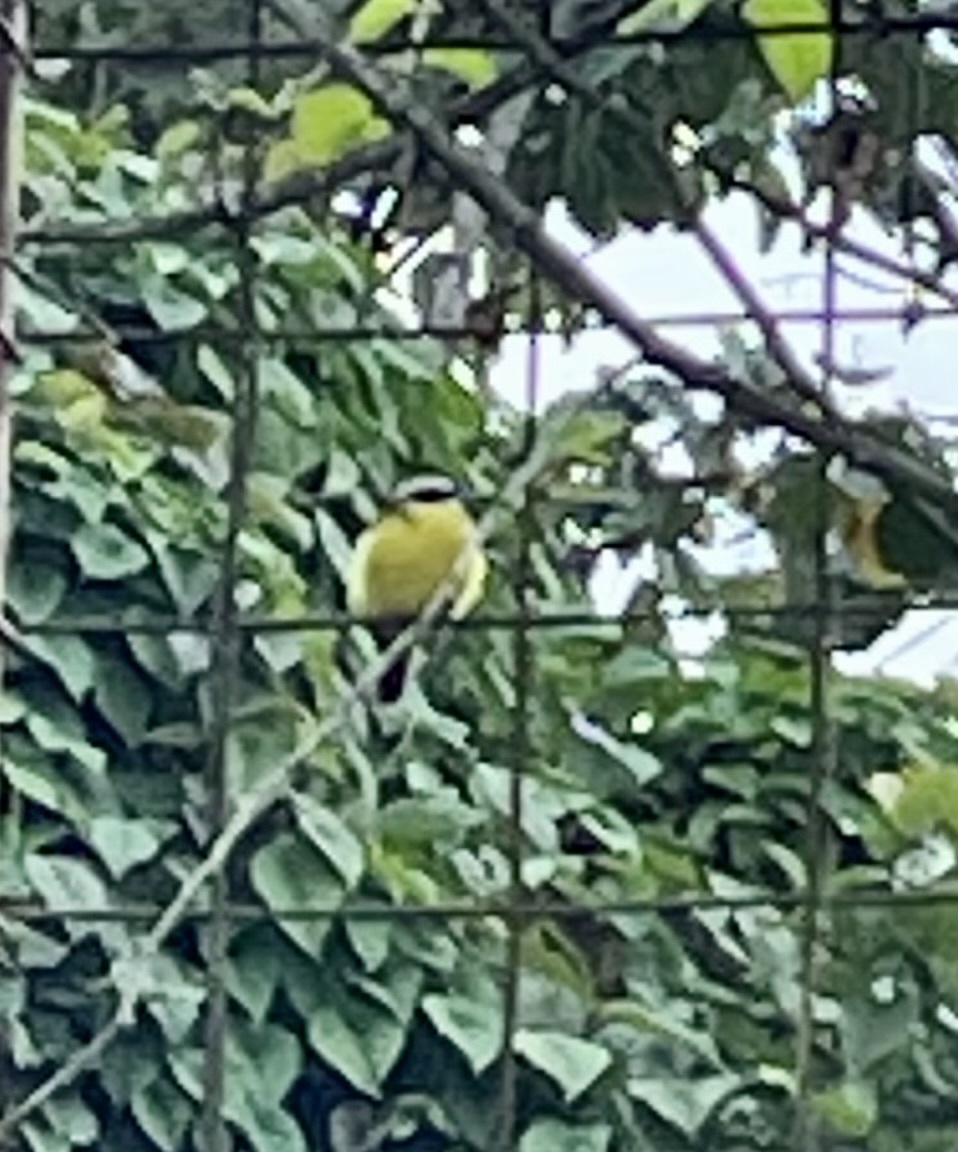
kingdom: Animalia
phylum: Chordata
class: Aves
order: Passeriformes
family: Tyrannidae
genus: Pitangus
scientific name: Pitangus sulphuratus
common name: Great kiskadee
